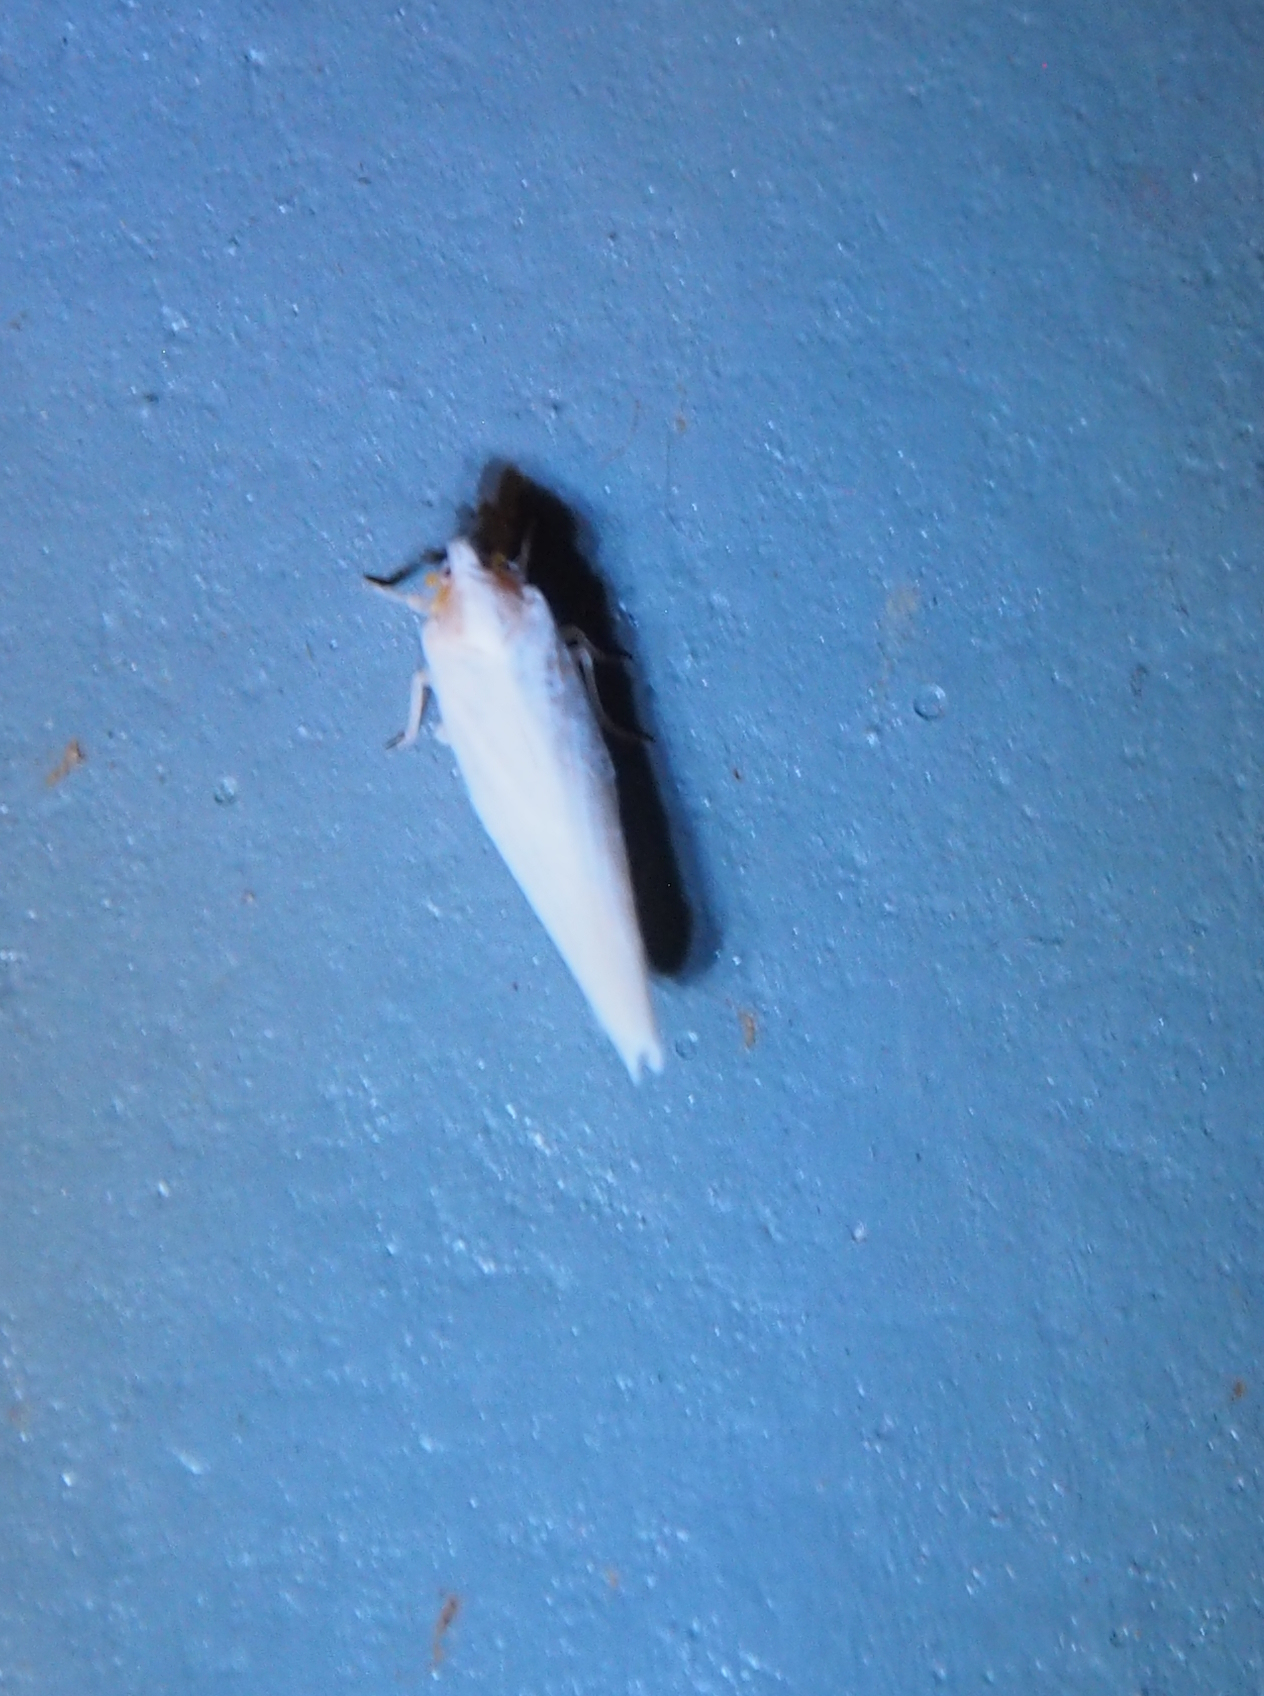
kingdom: Animalia
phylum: Arthropoda
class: Insecta
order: Hemiptera
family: Derbidae
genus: Neocenchrea
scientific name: Neocenchrea heidemanni
